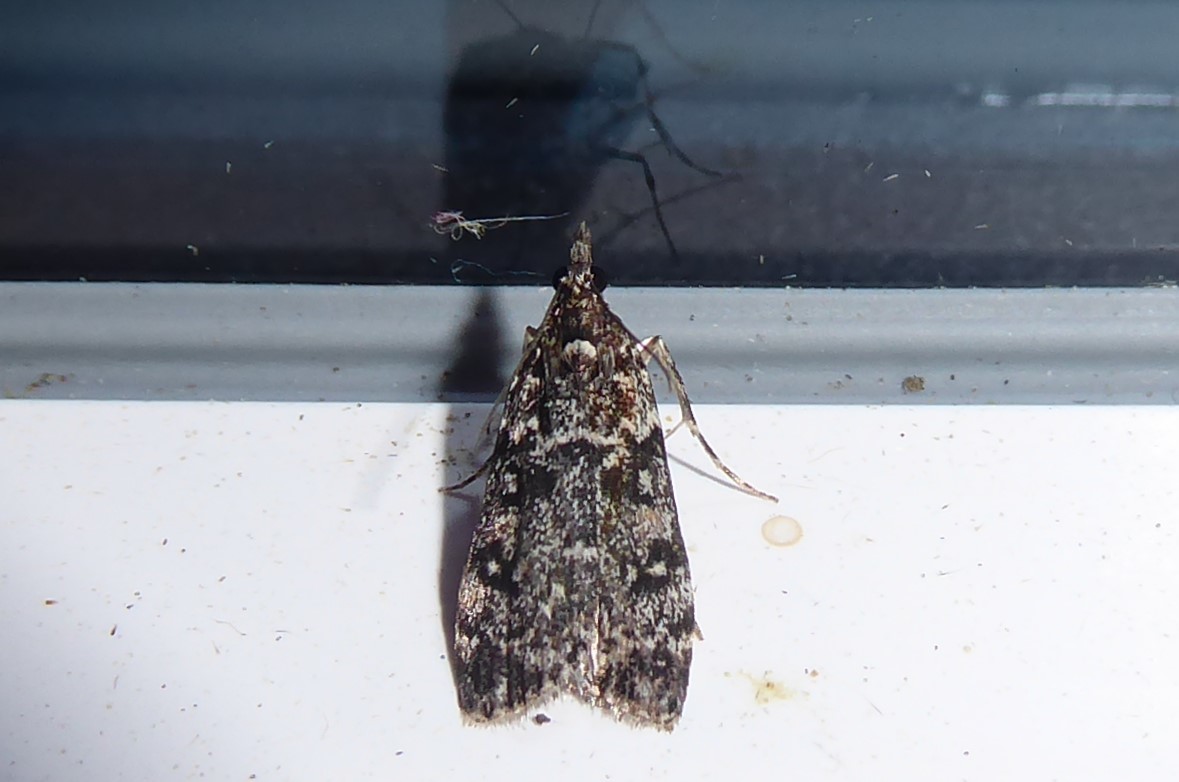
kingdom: Animalia
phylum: Arthropoda
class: Insecta
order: Lepidoptera
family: Crambidae
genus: Eudonia
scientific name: Eudonia philerga
